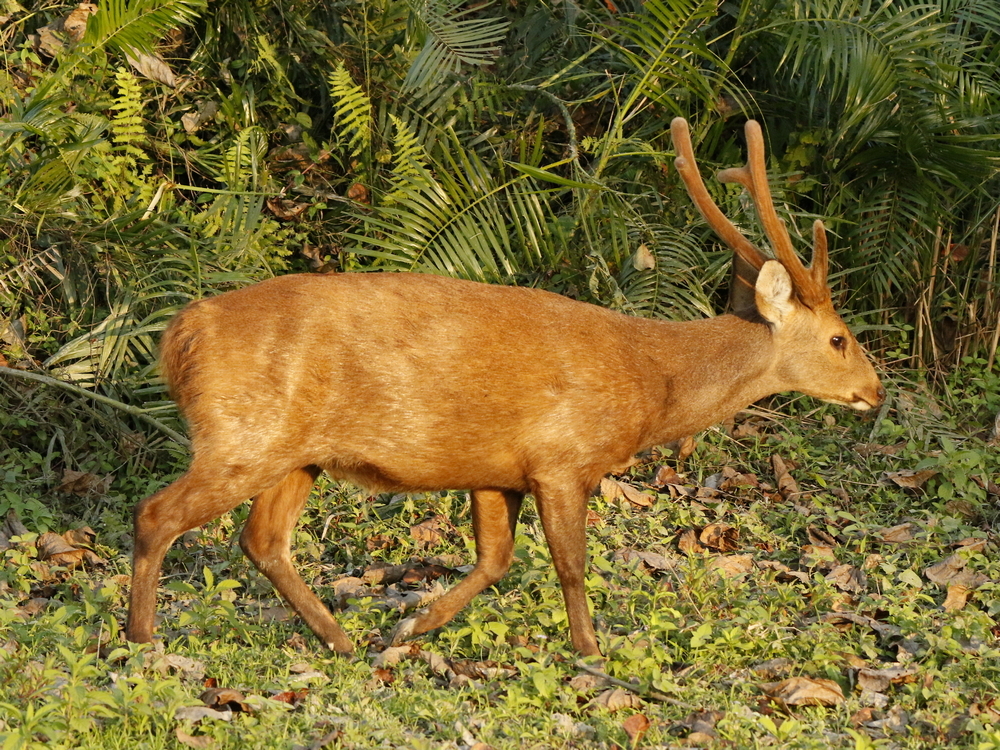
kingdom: Animalia
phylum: Chordata
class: Mammalia
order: Artiodactyla
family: Cervidae
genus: Axis
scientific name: Axis porcinus
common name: Hog deer
